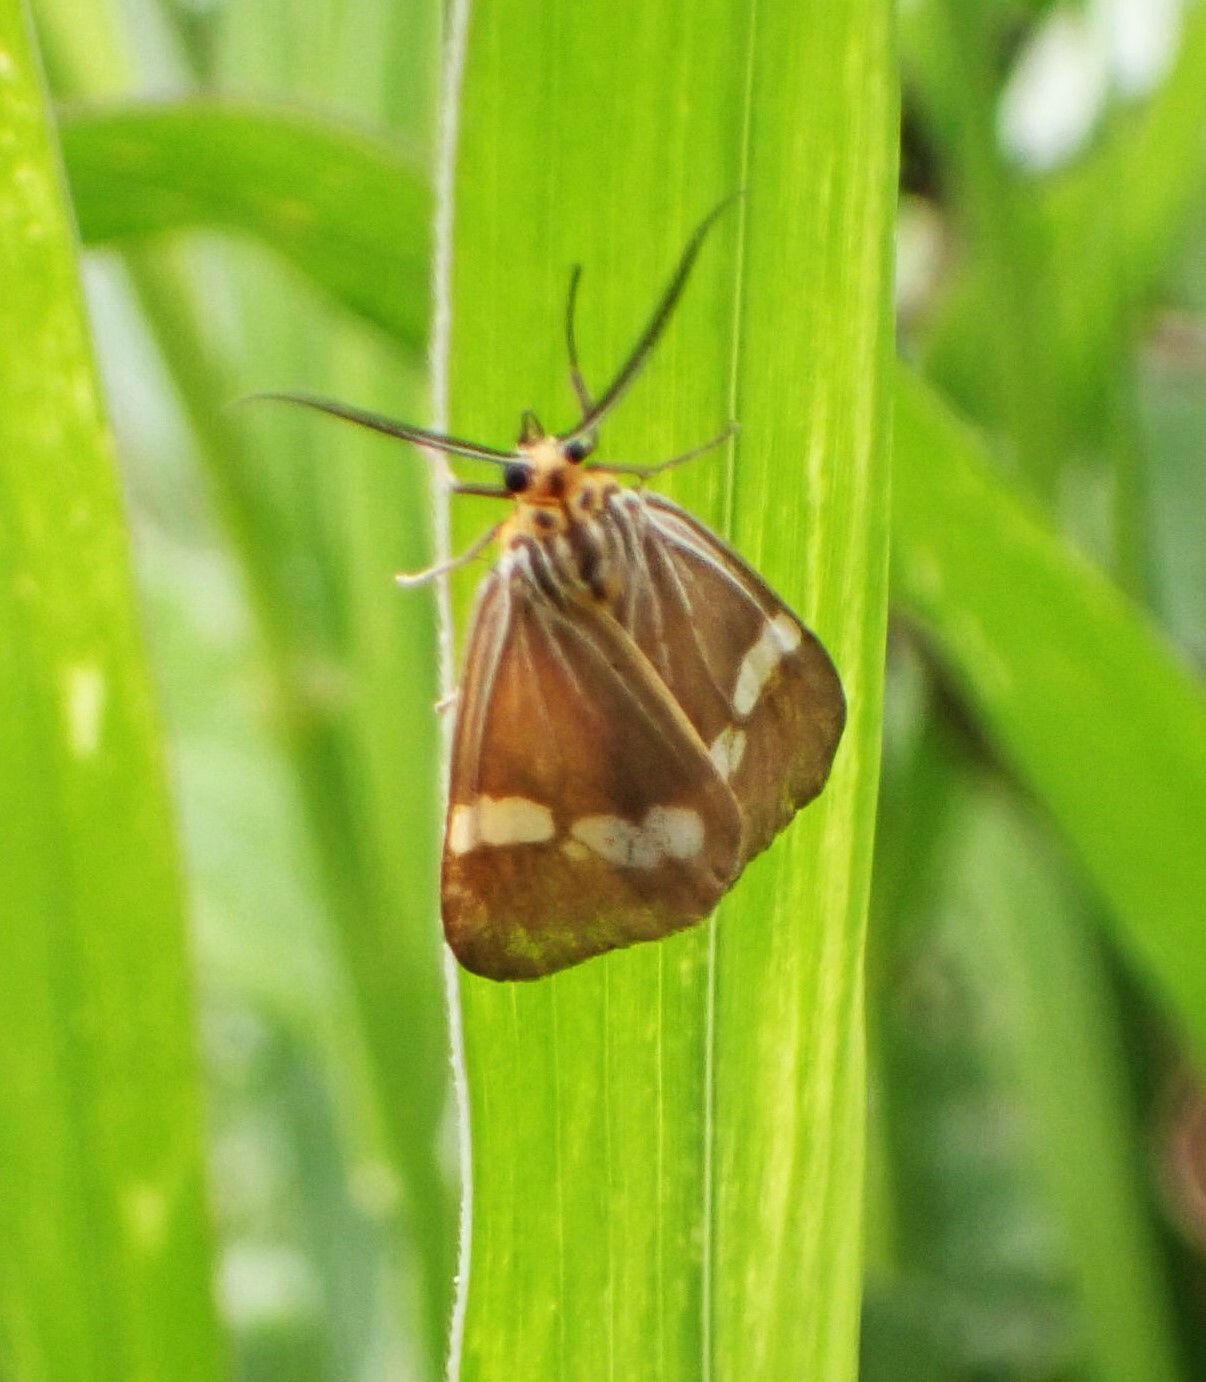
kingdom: Animalia
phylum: Arthropoda
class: Insecta
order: Lepidoptera
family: Erebidae
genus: Secusio
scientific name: Secusio strigata
